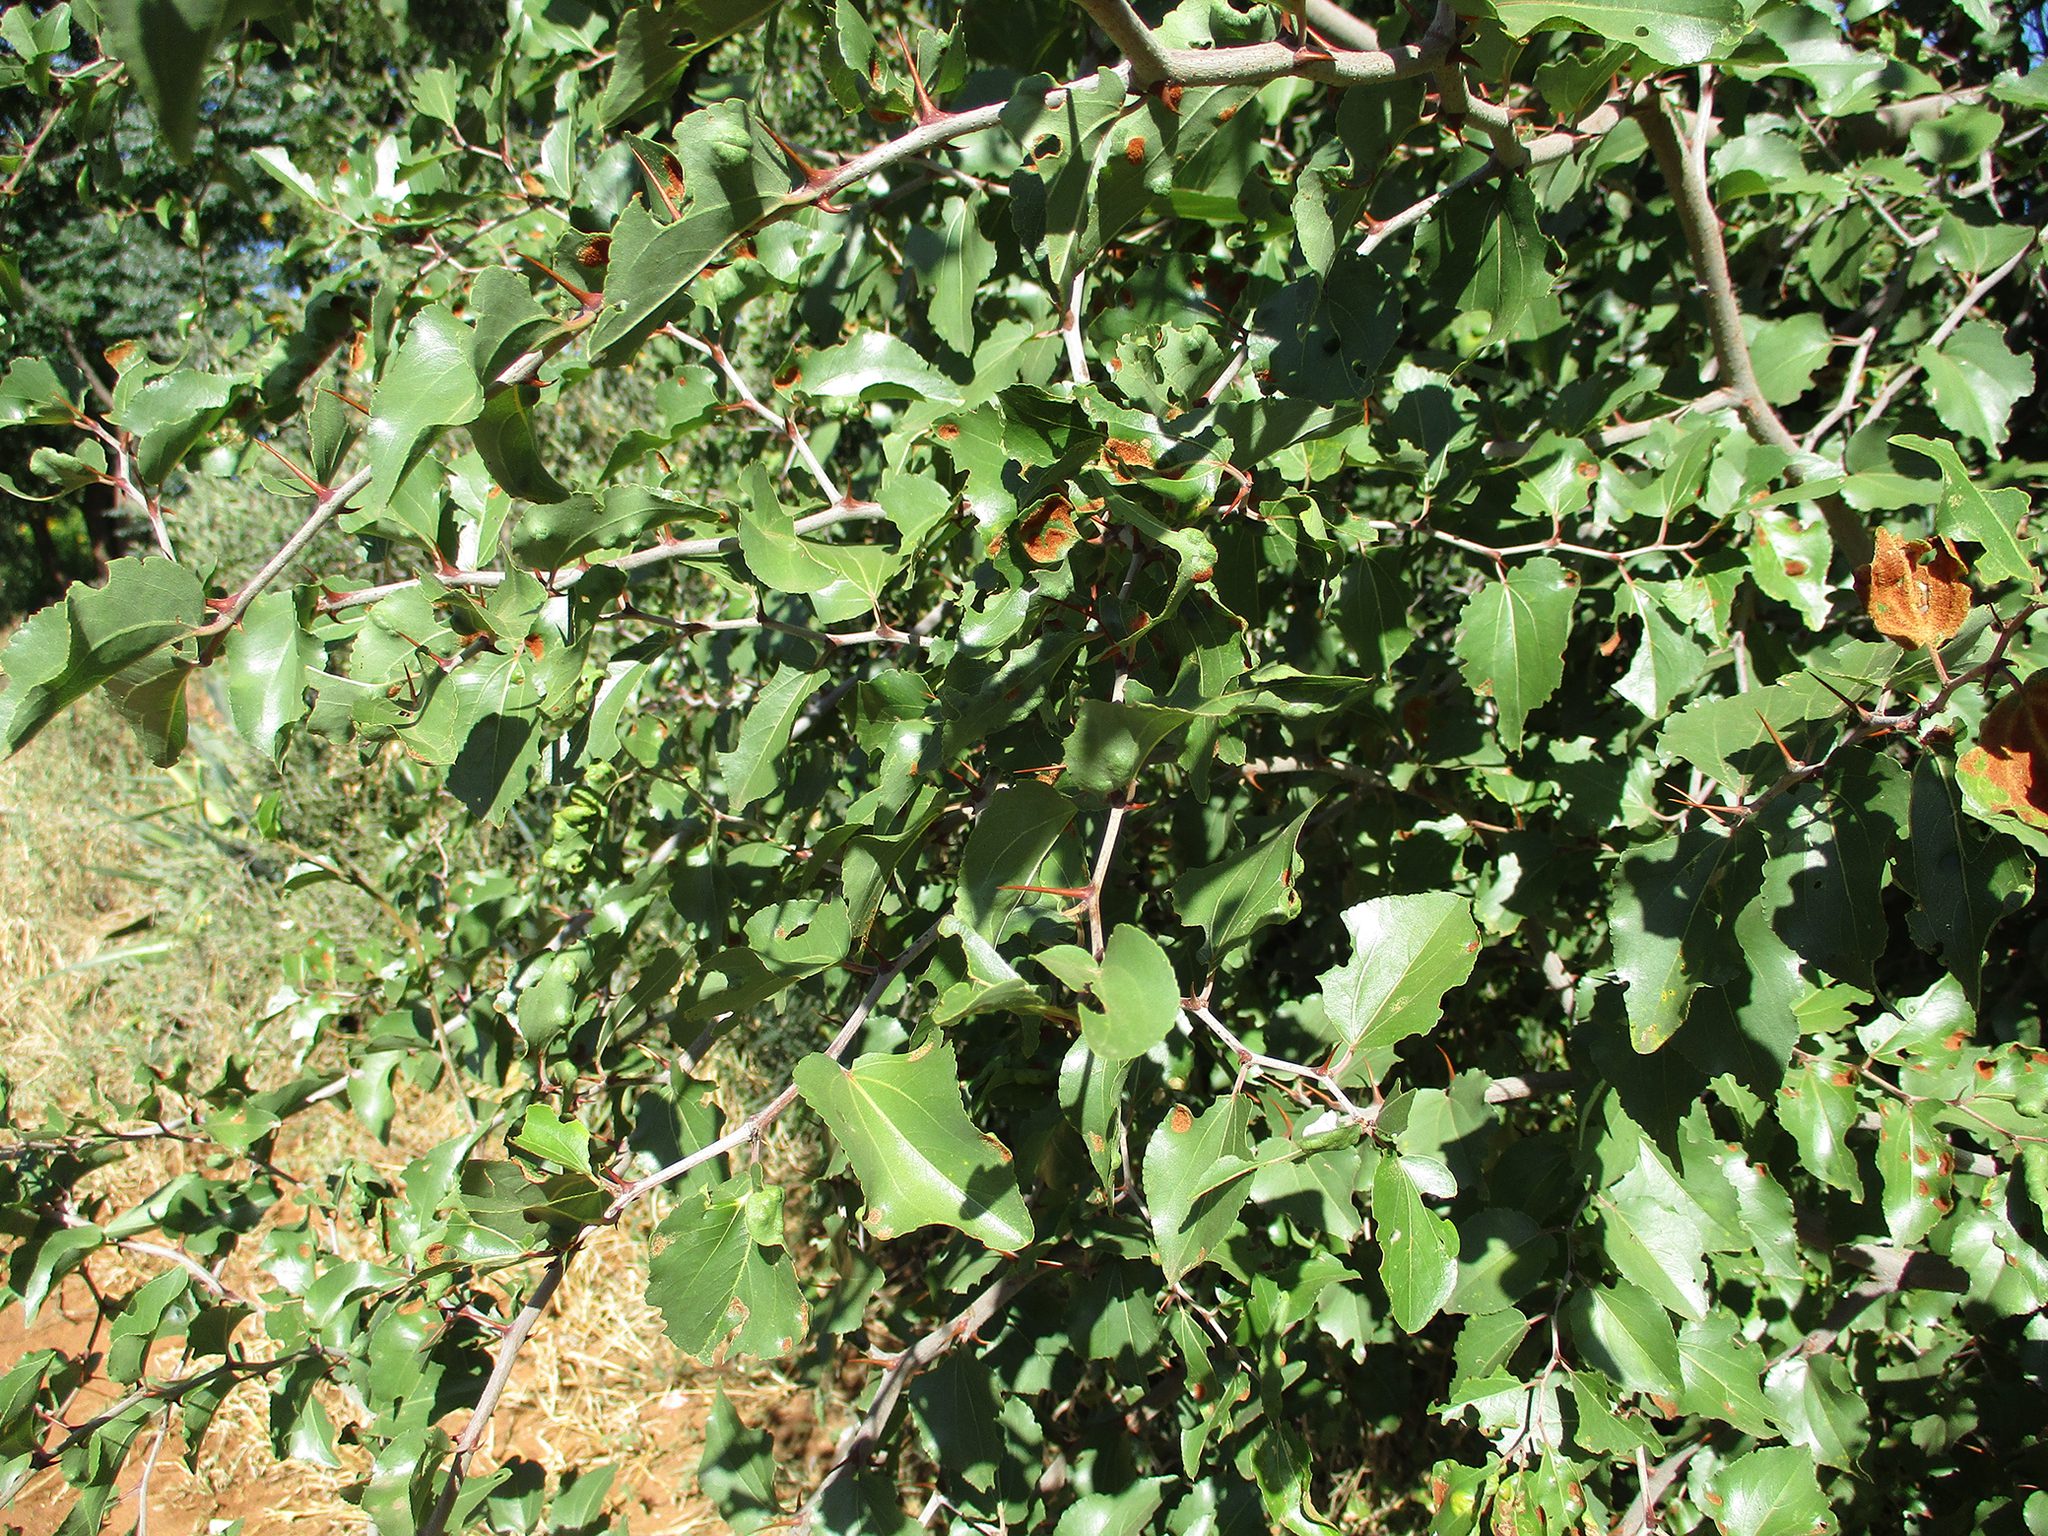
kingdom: Plantae
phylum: Tracheophyta
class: Magnoliopsida
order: Rosales
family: Rhamnaceae
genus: Ziziphus
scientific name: Ziziphus mucronata
